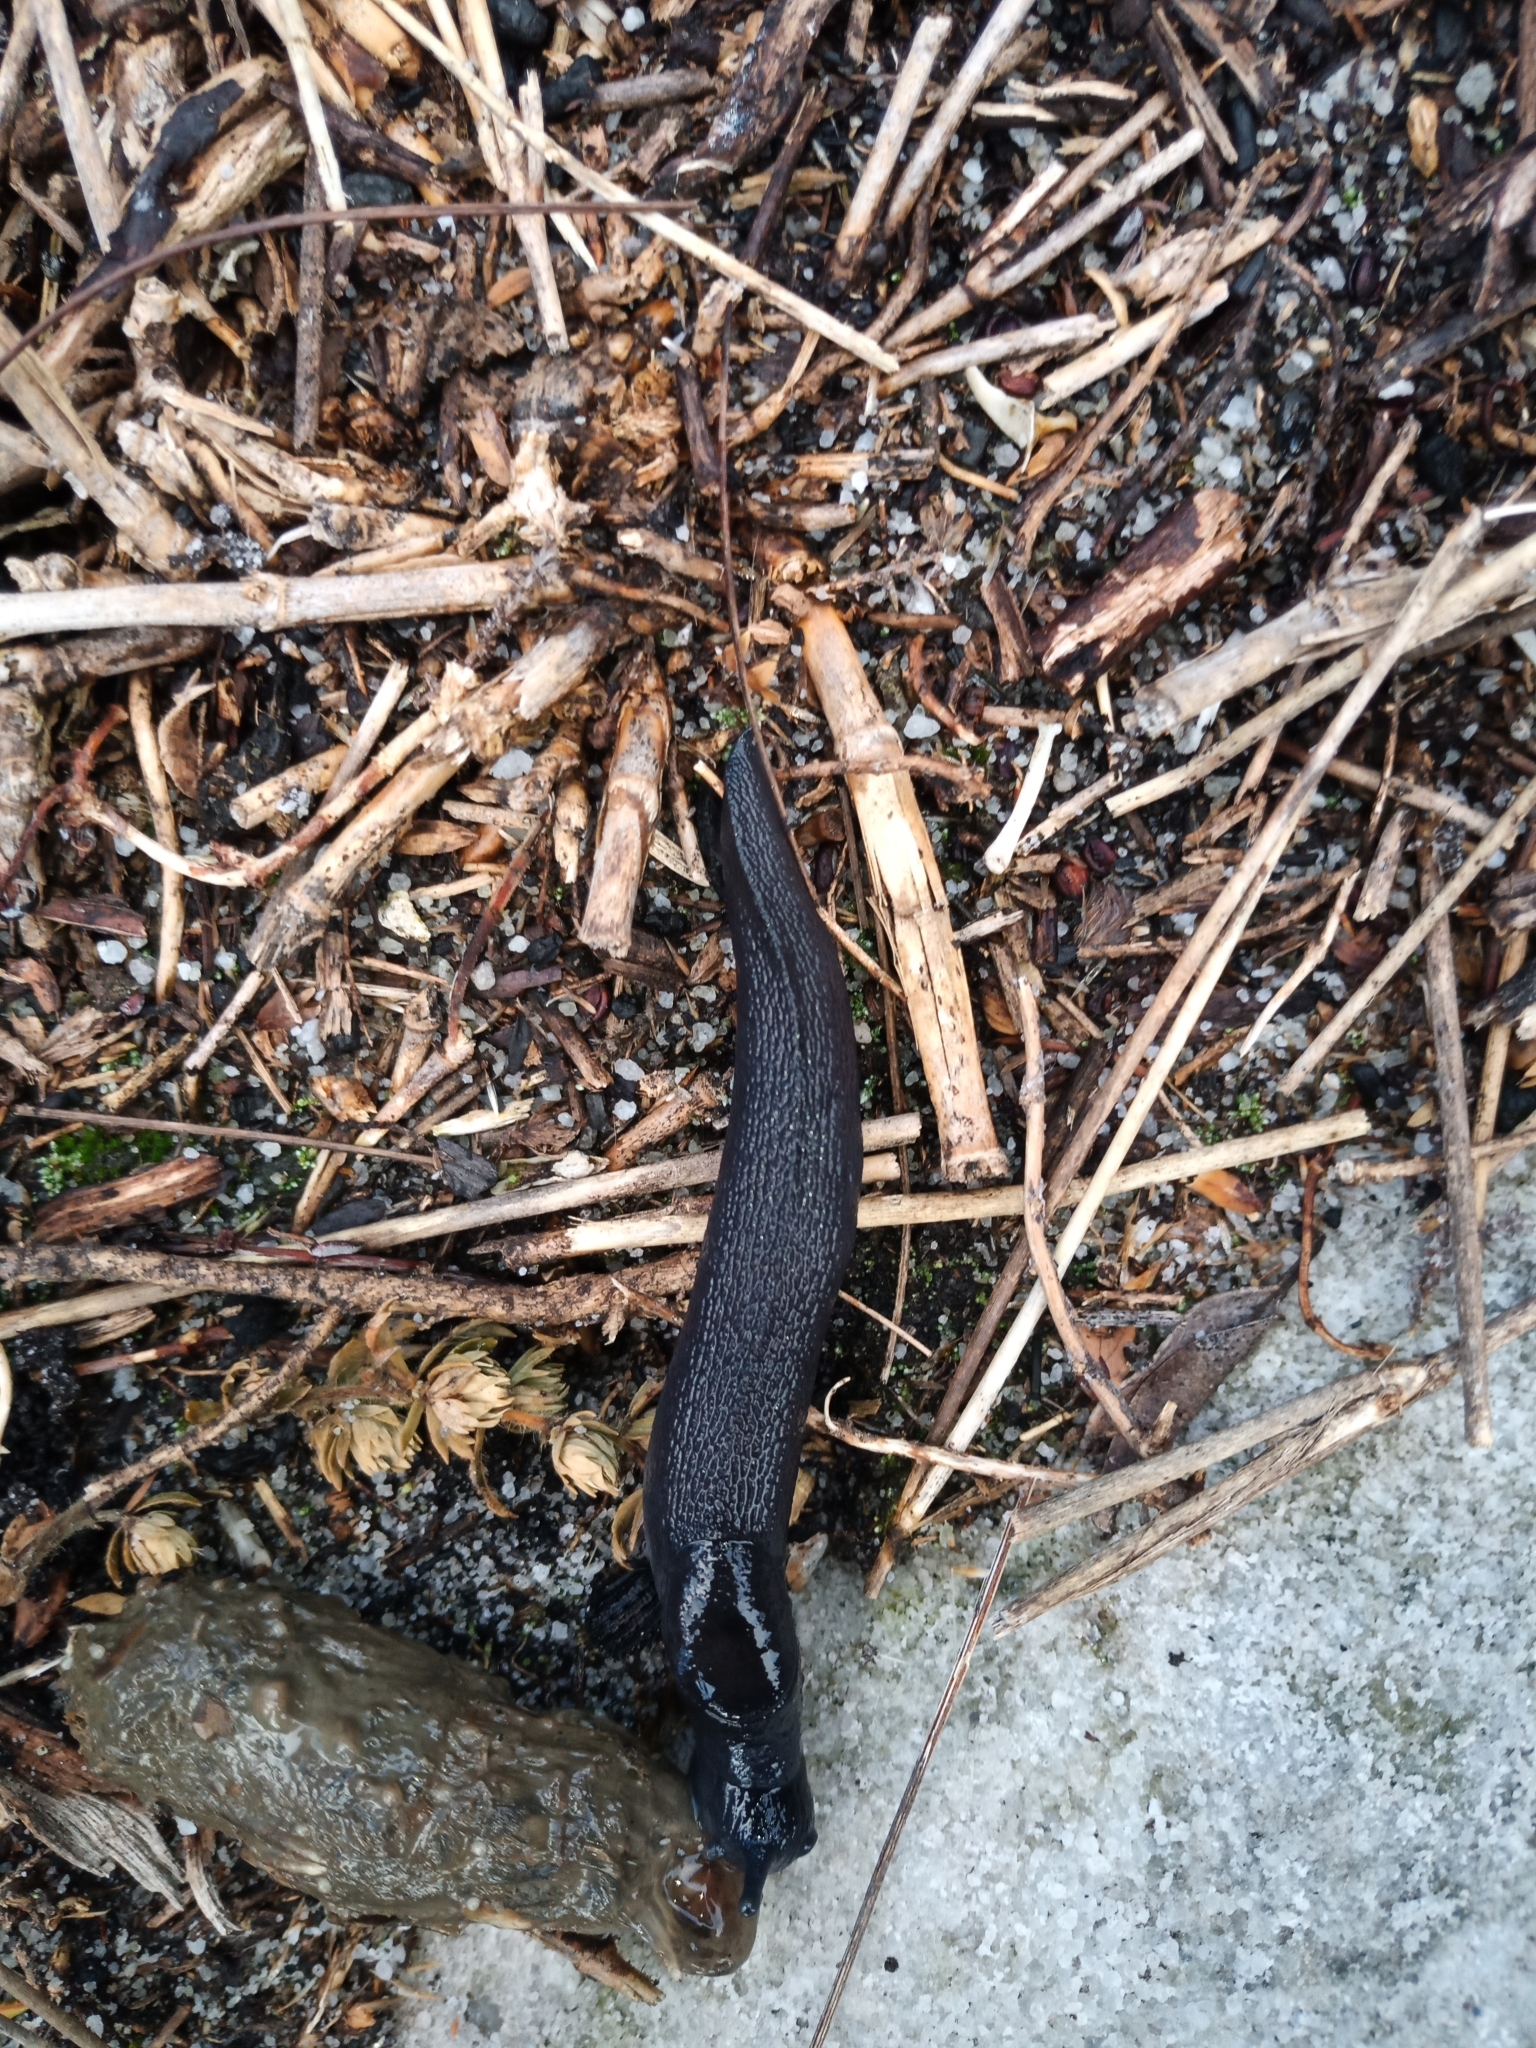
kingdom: Animalia
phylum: Mollusca
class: Gastropoda
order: Stylommatophora
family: Oopeltidae
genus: Ariopelta
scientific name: Ariopelta capensis
